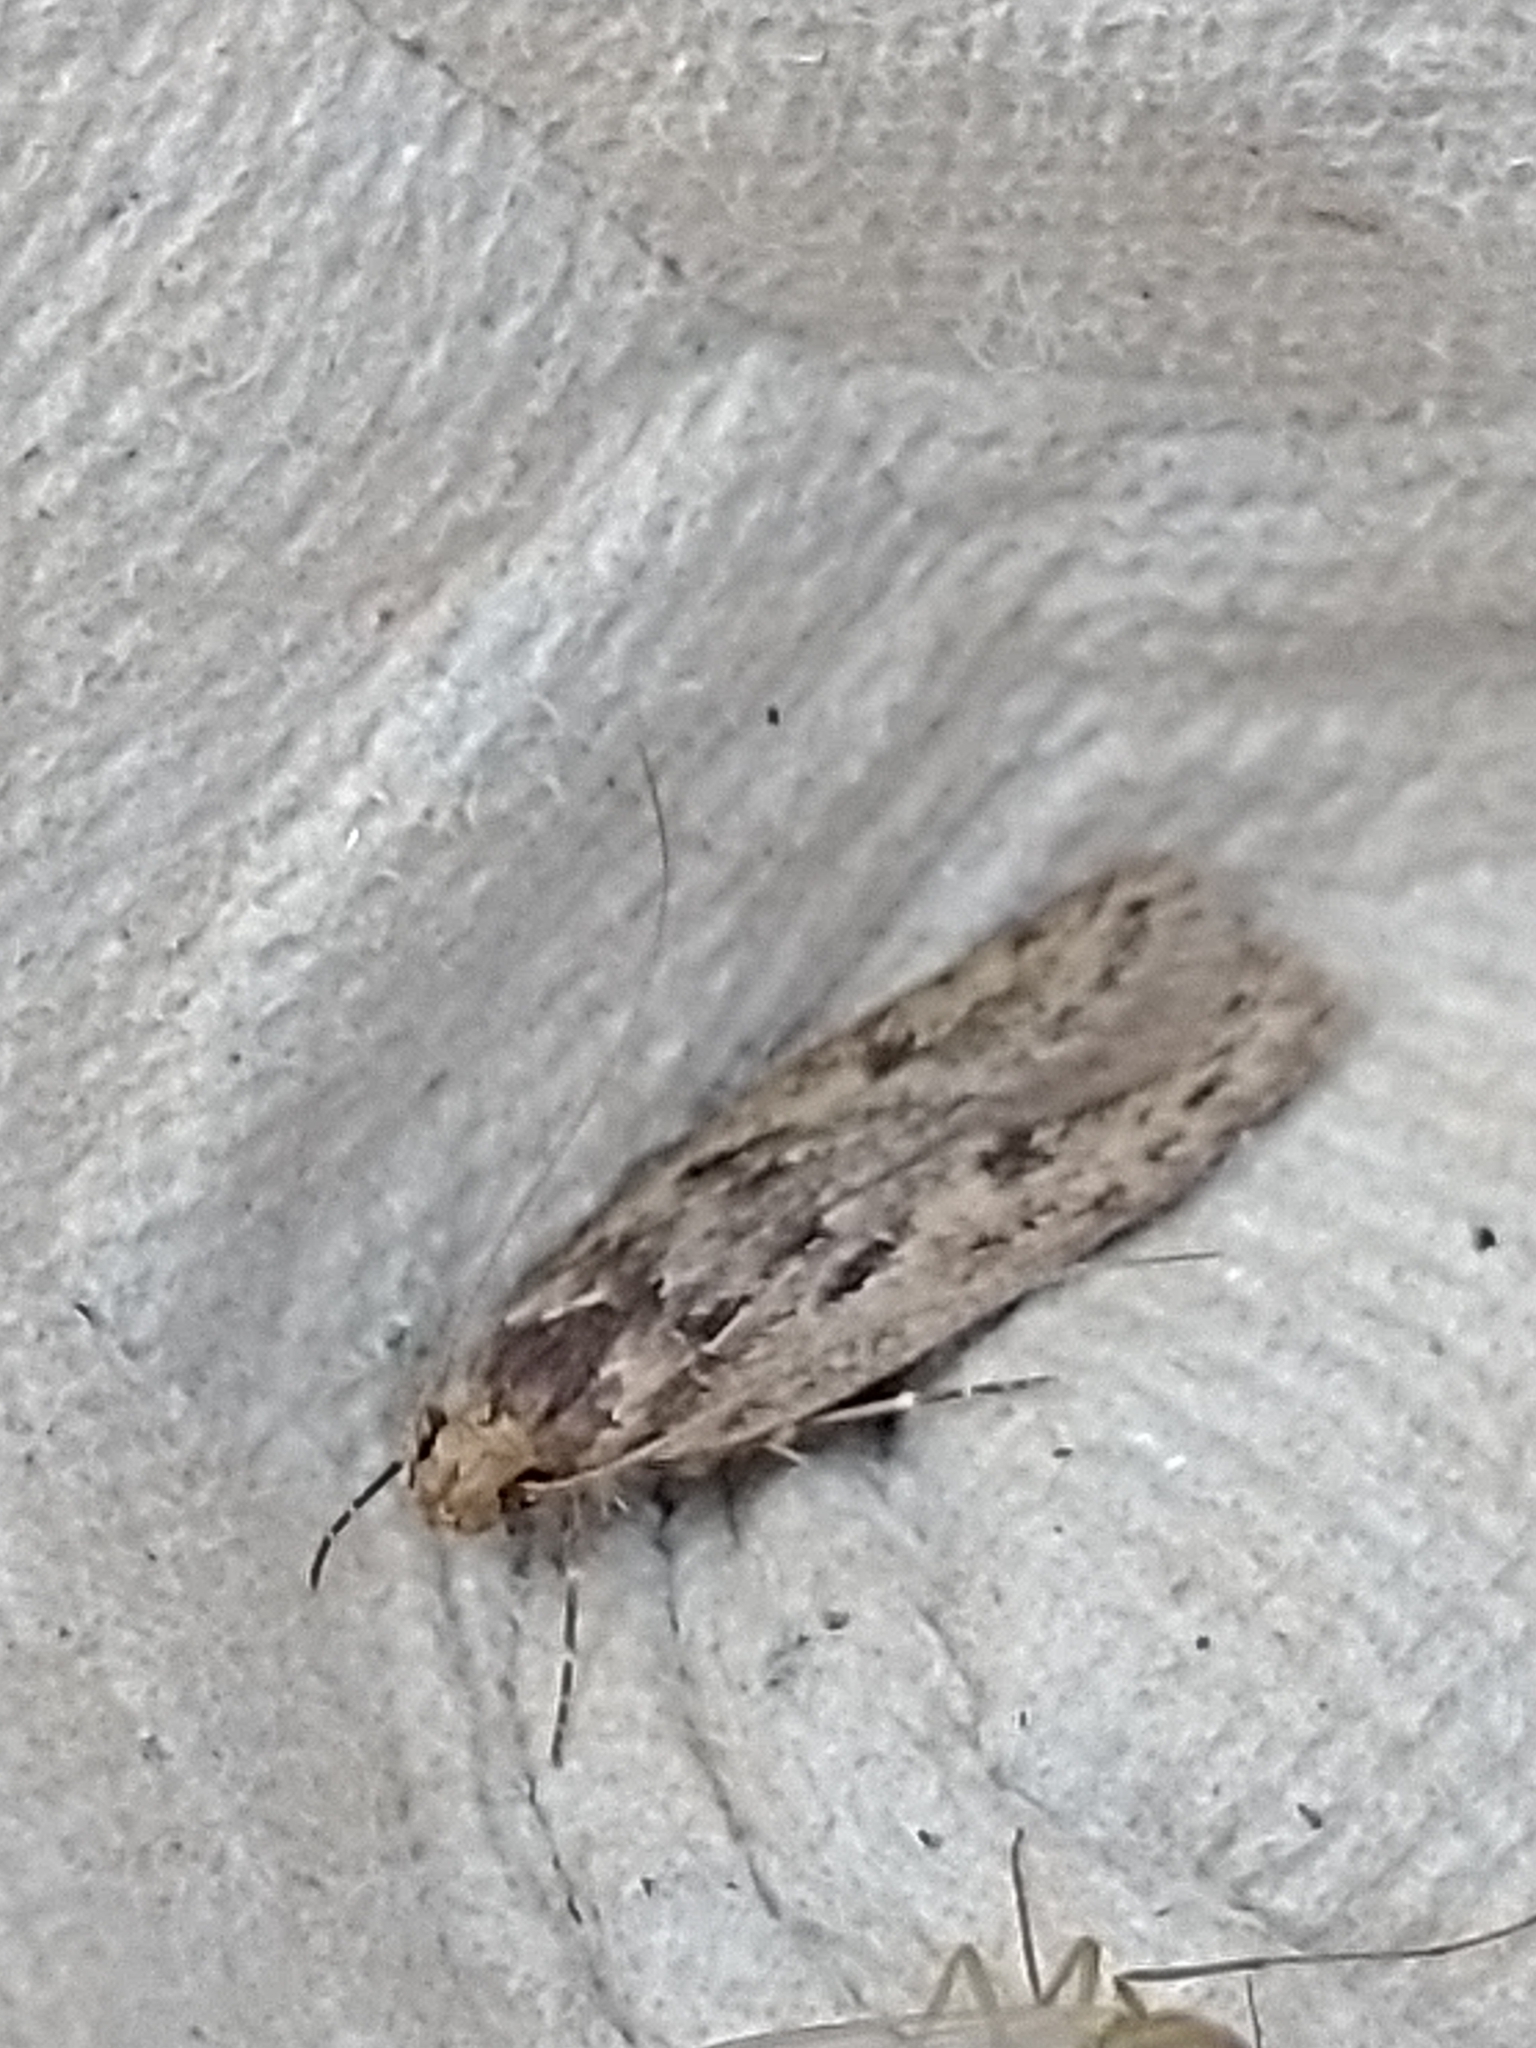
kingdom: Animalia
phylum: Arthropoda
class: Insecta
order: Lepidoptera
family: Oecophoridae
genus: Hofmannophila
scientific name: Hofmannophila pseudospretella
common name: Brown house moth
